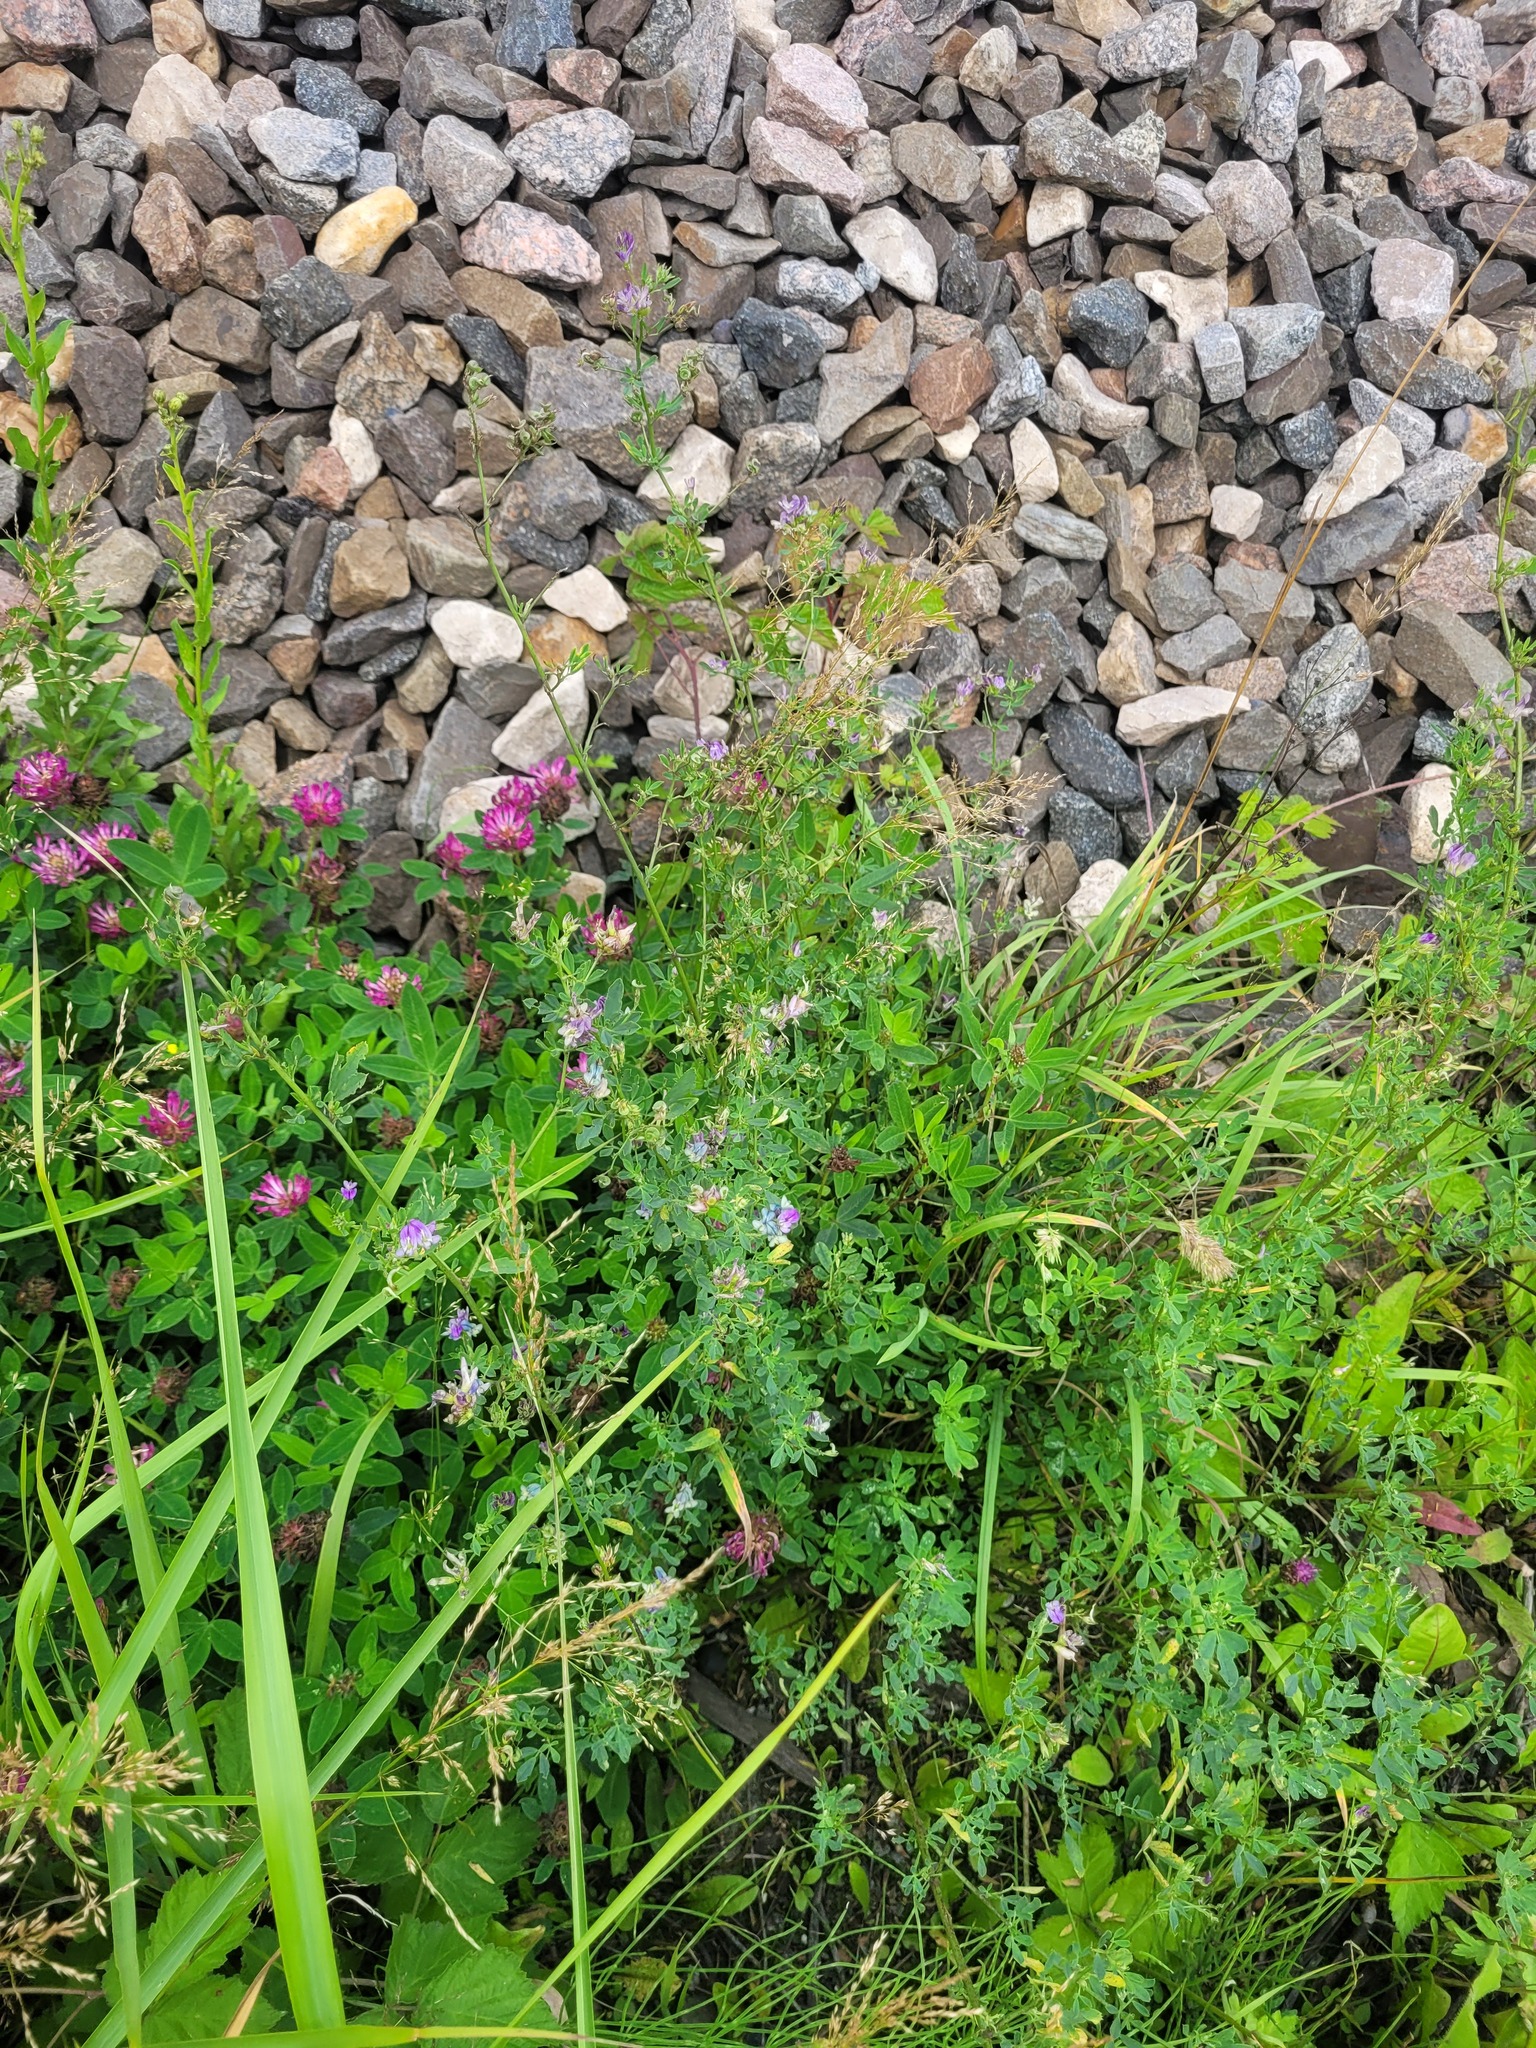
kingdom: Plantae
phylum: Tracheophyta
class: Magnoliopsida
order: Fabales
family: Fabaceae
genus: Medicago
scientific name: Medicago varia
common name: Sand lucerne
